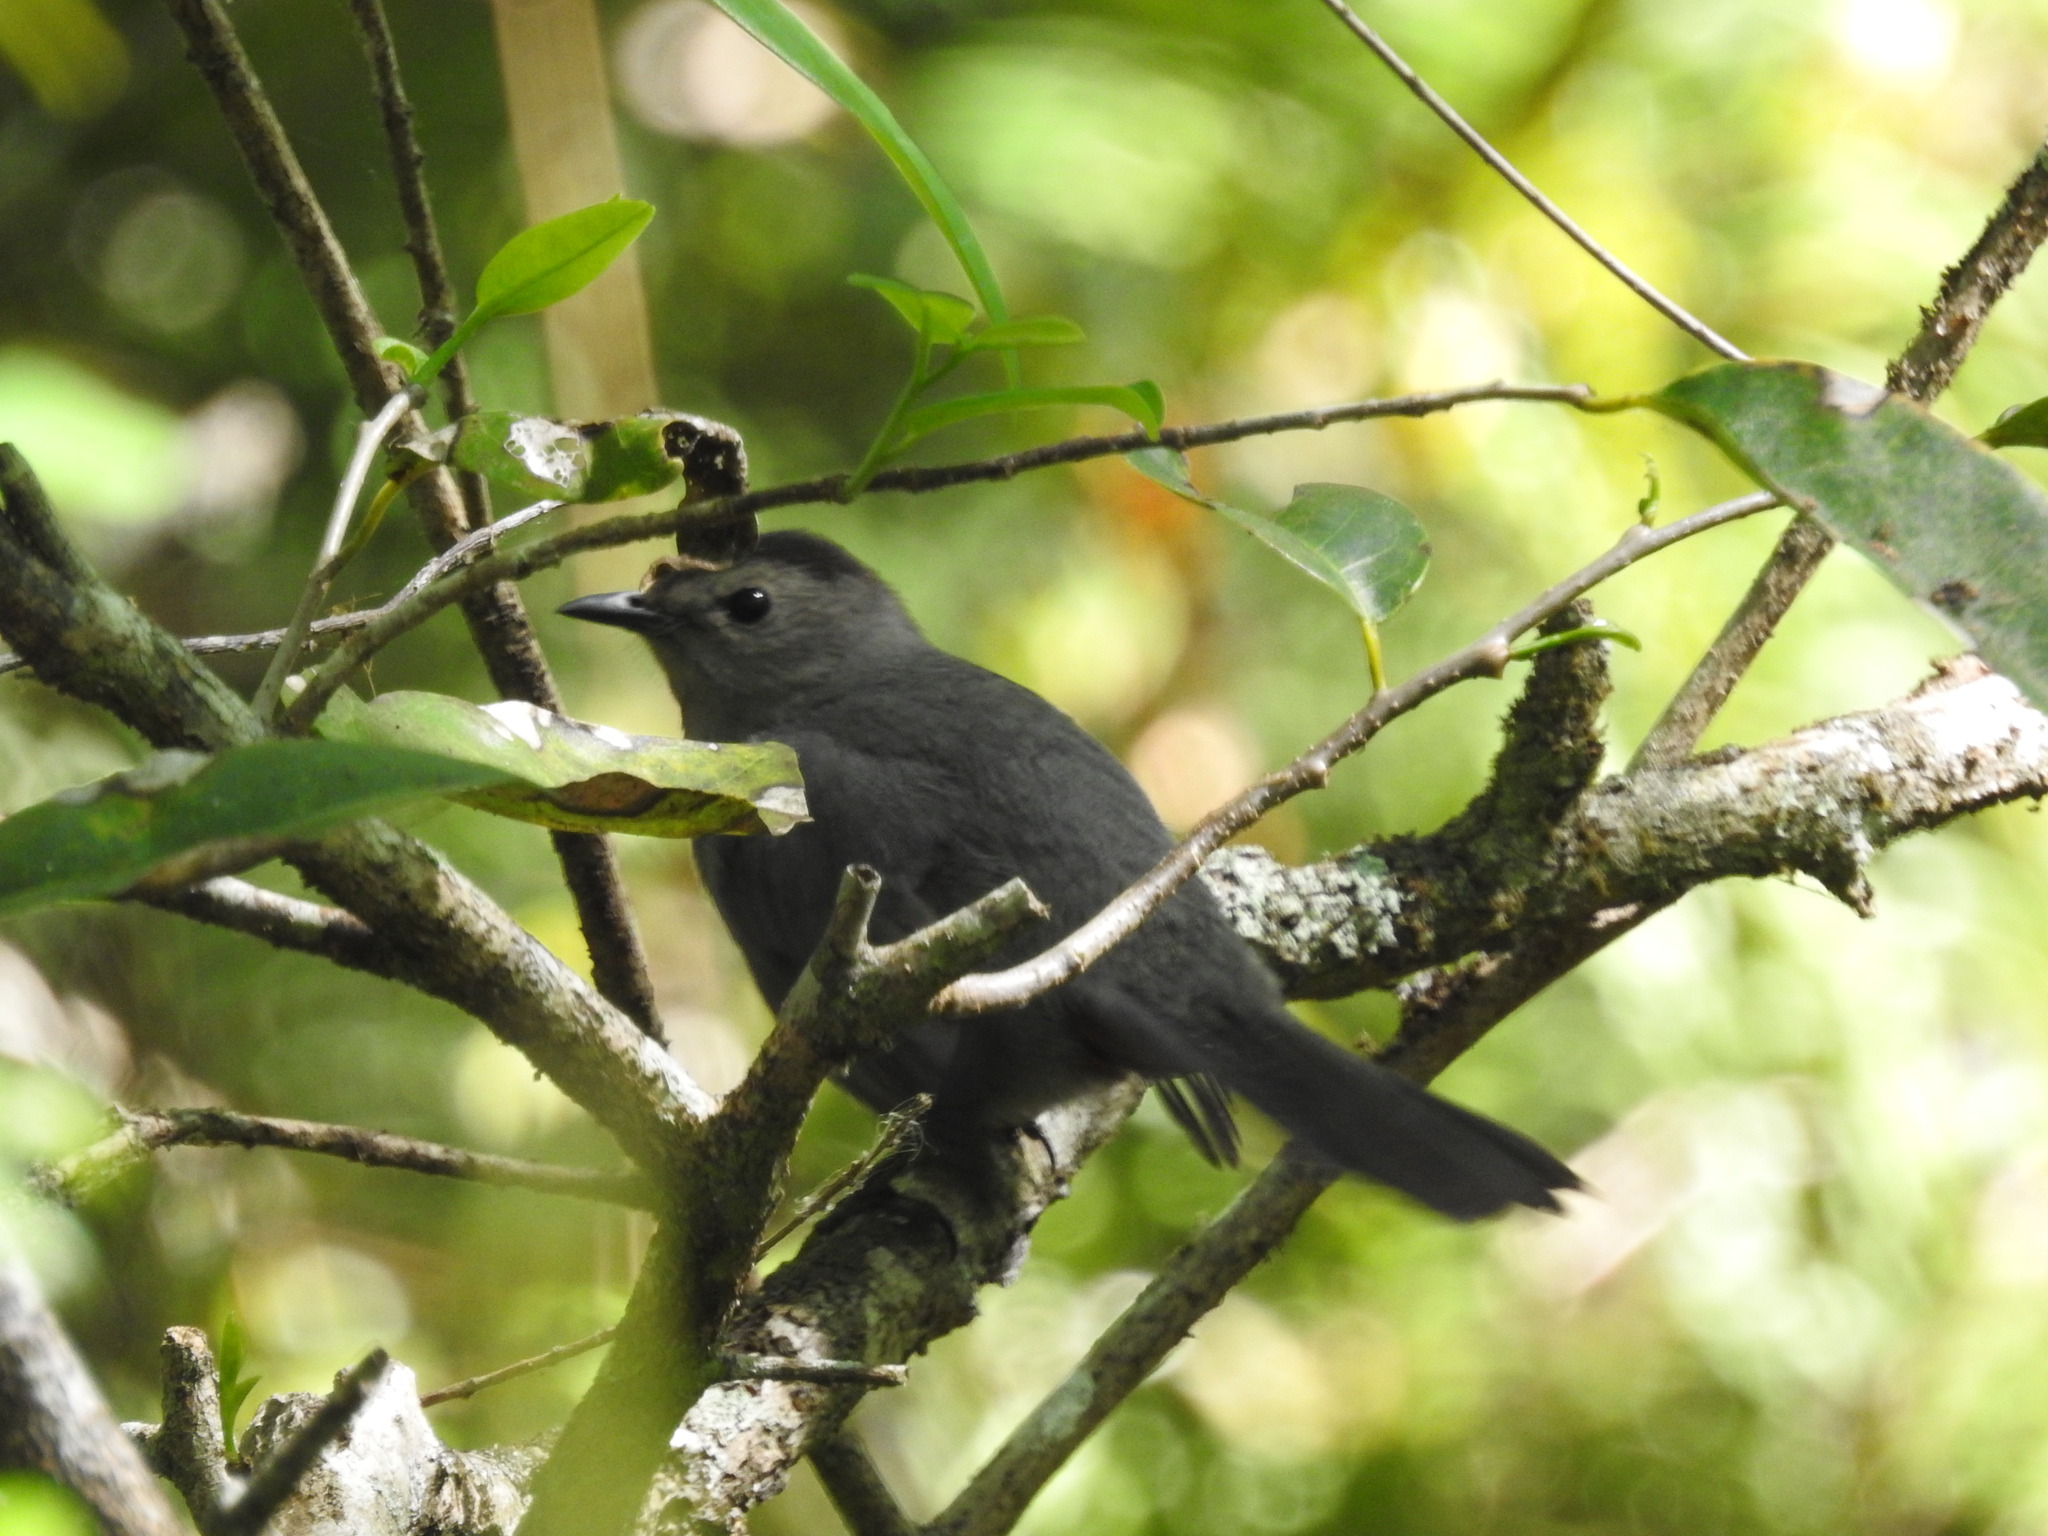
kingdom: Animalia
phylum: Chordata
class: Aves
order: Passeriformes
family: Mimidae
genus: Dumetella
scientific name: Dumetella carolinensis
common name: Gray catbird
